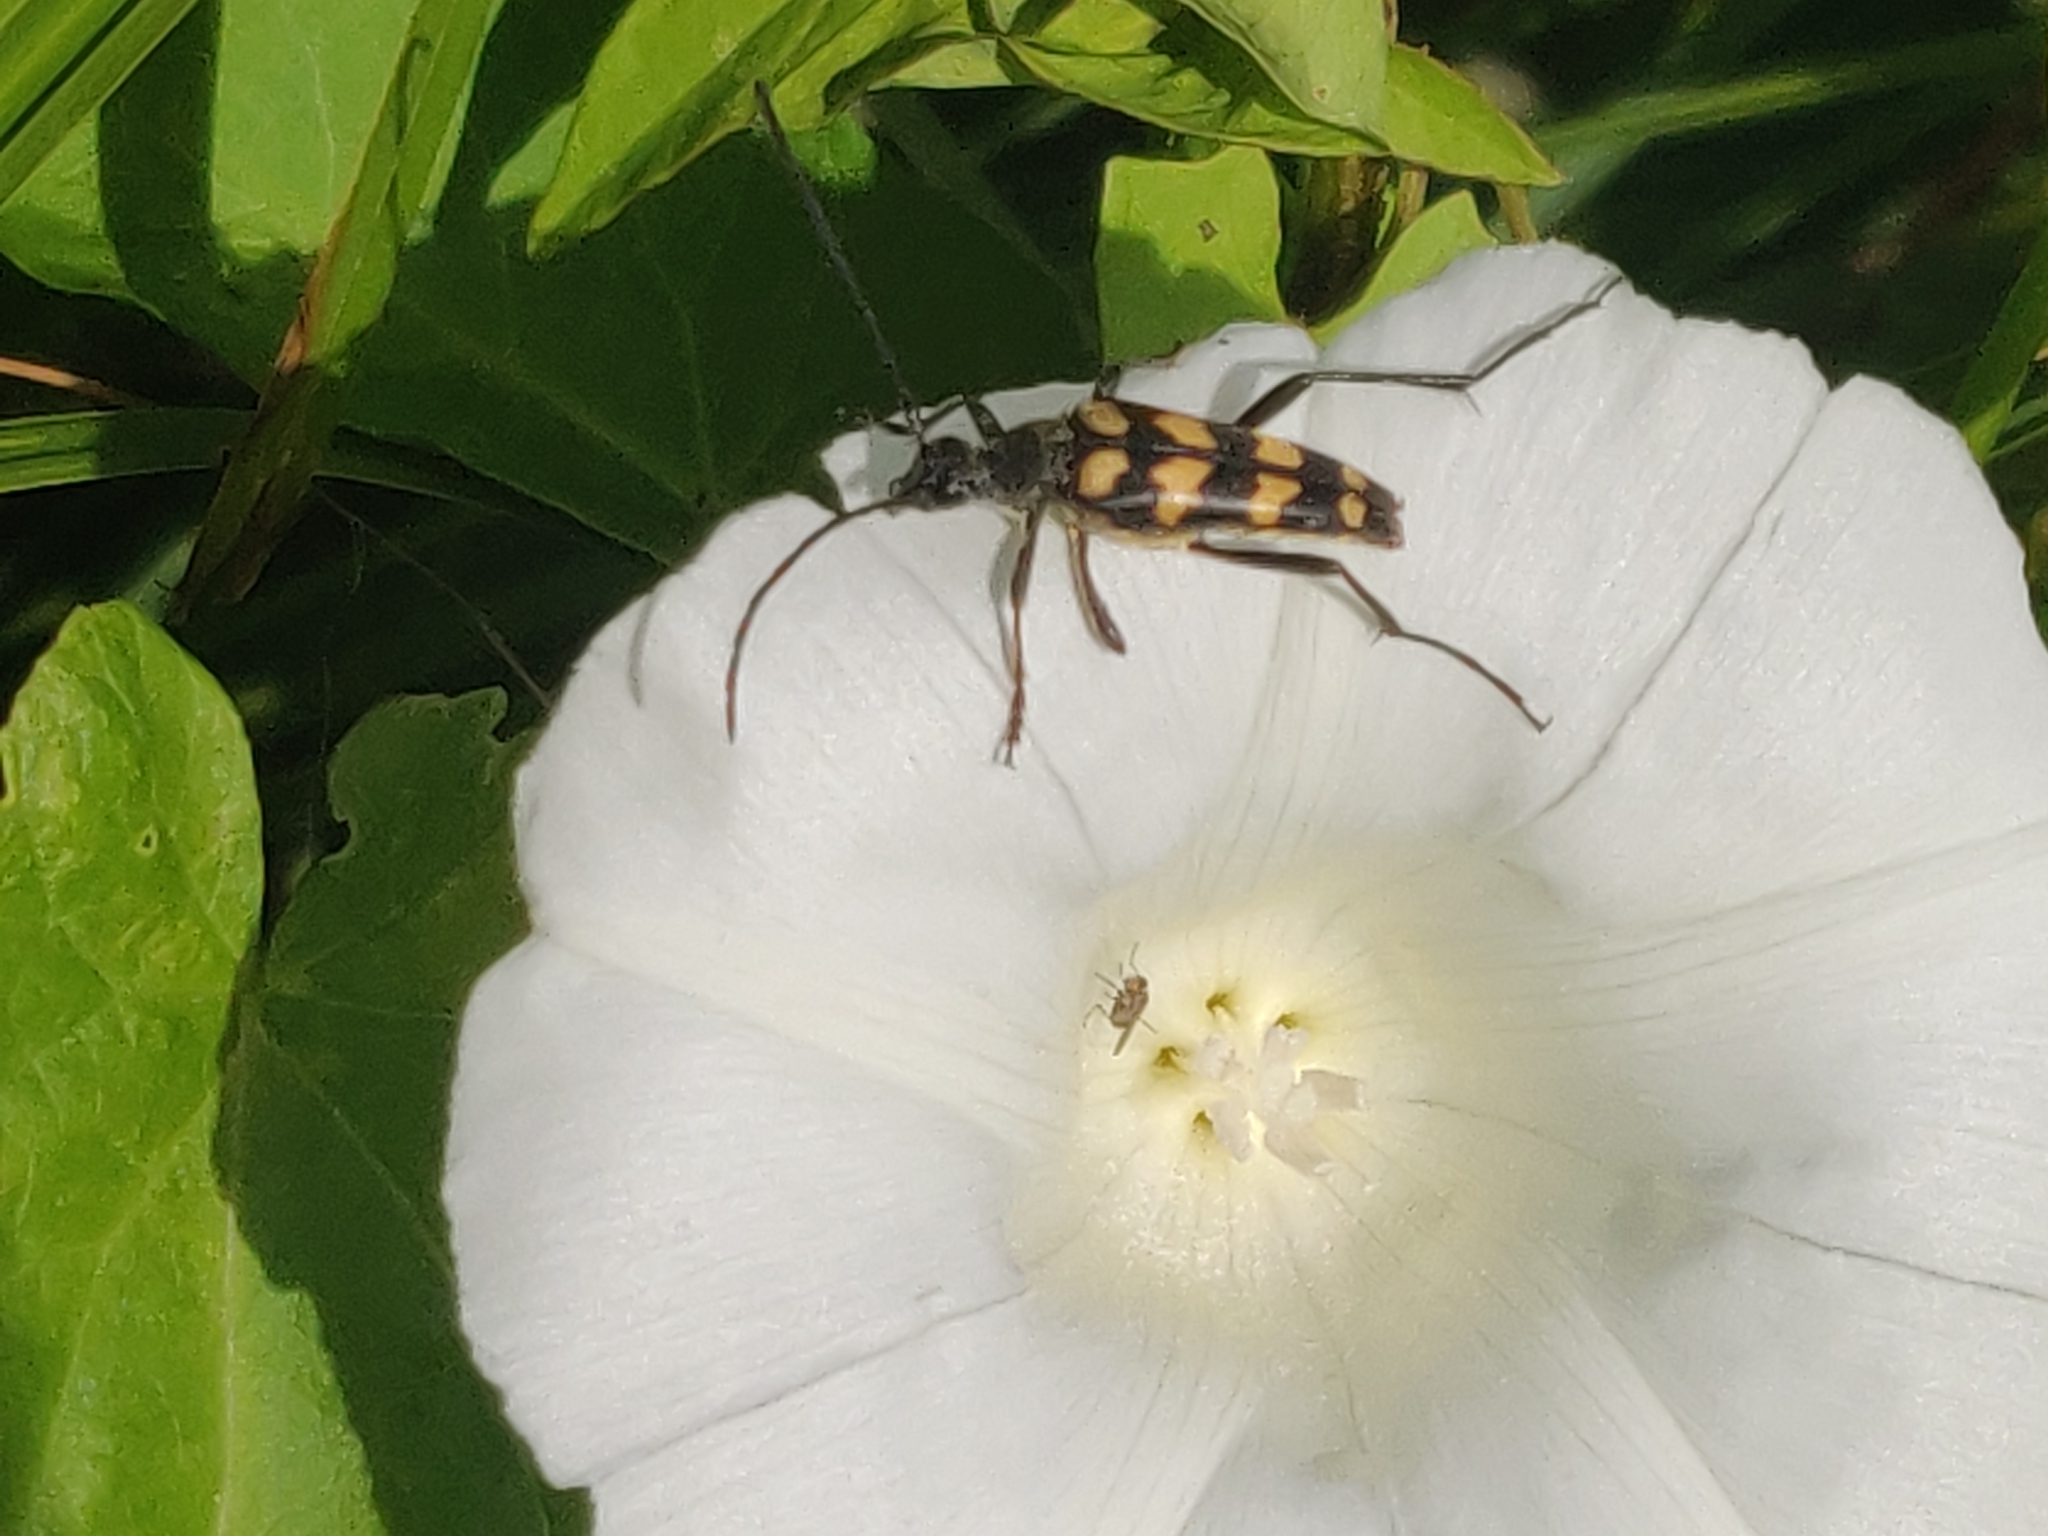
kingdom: Animalia
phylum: Arthropoda
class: Insecta
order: Coleoptera
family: Cerambycidae
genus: Leptura
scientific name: Leptura quadrifasciata
